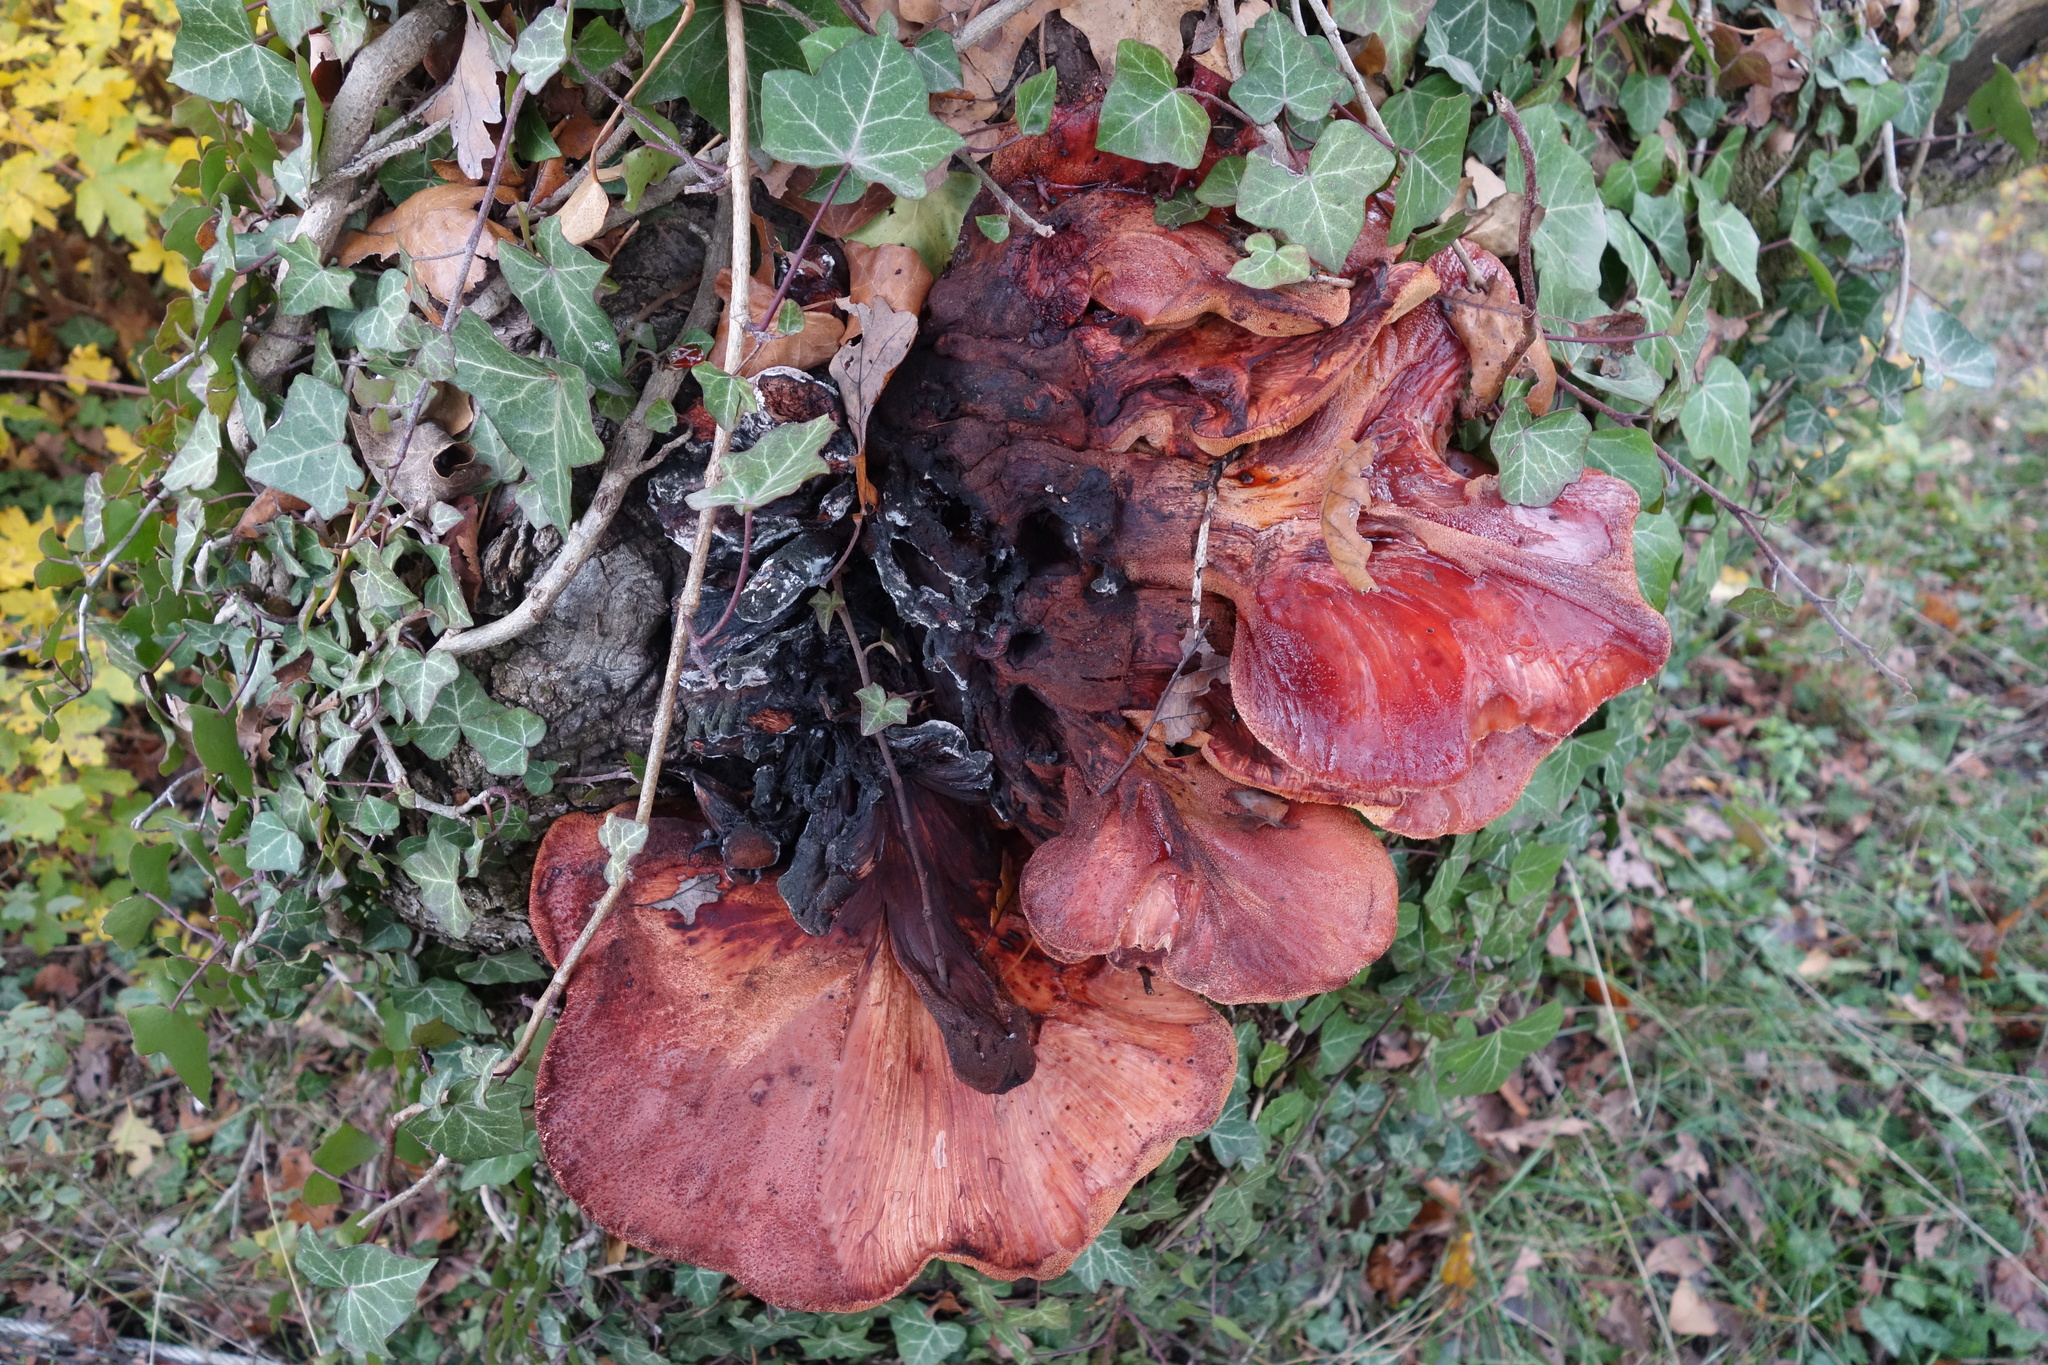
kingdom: Fungi
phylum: Basidiomycota
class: Agaricomycetes
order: Agaricales
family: Fistulinaceae
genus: Fistulina
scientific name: Fistulina hepatica
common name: Beef-steak fungus
